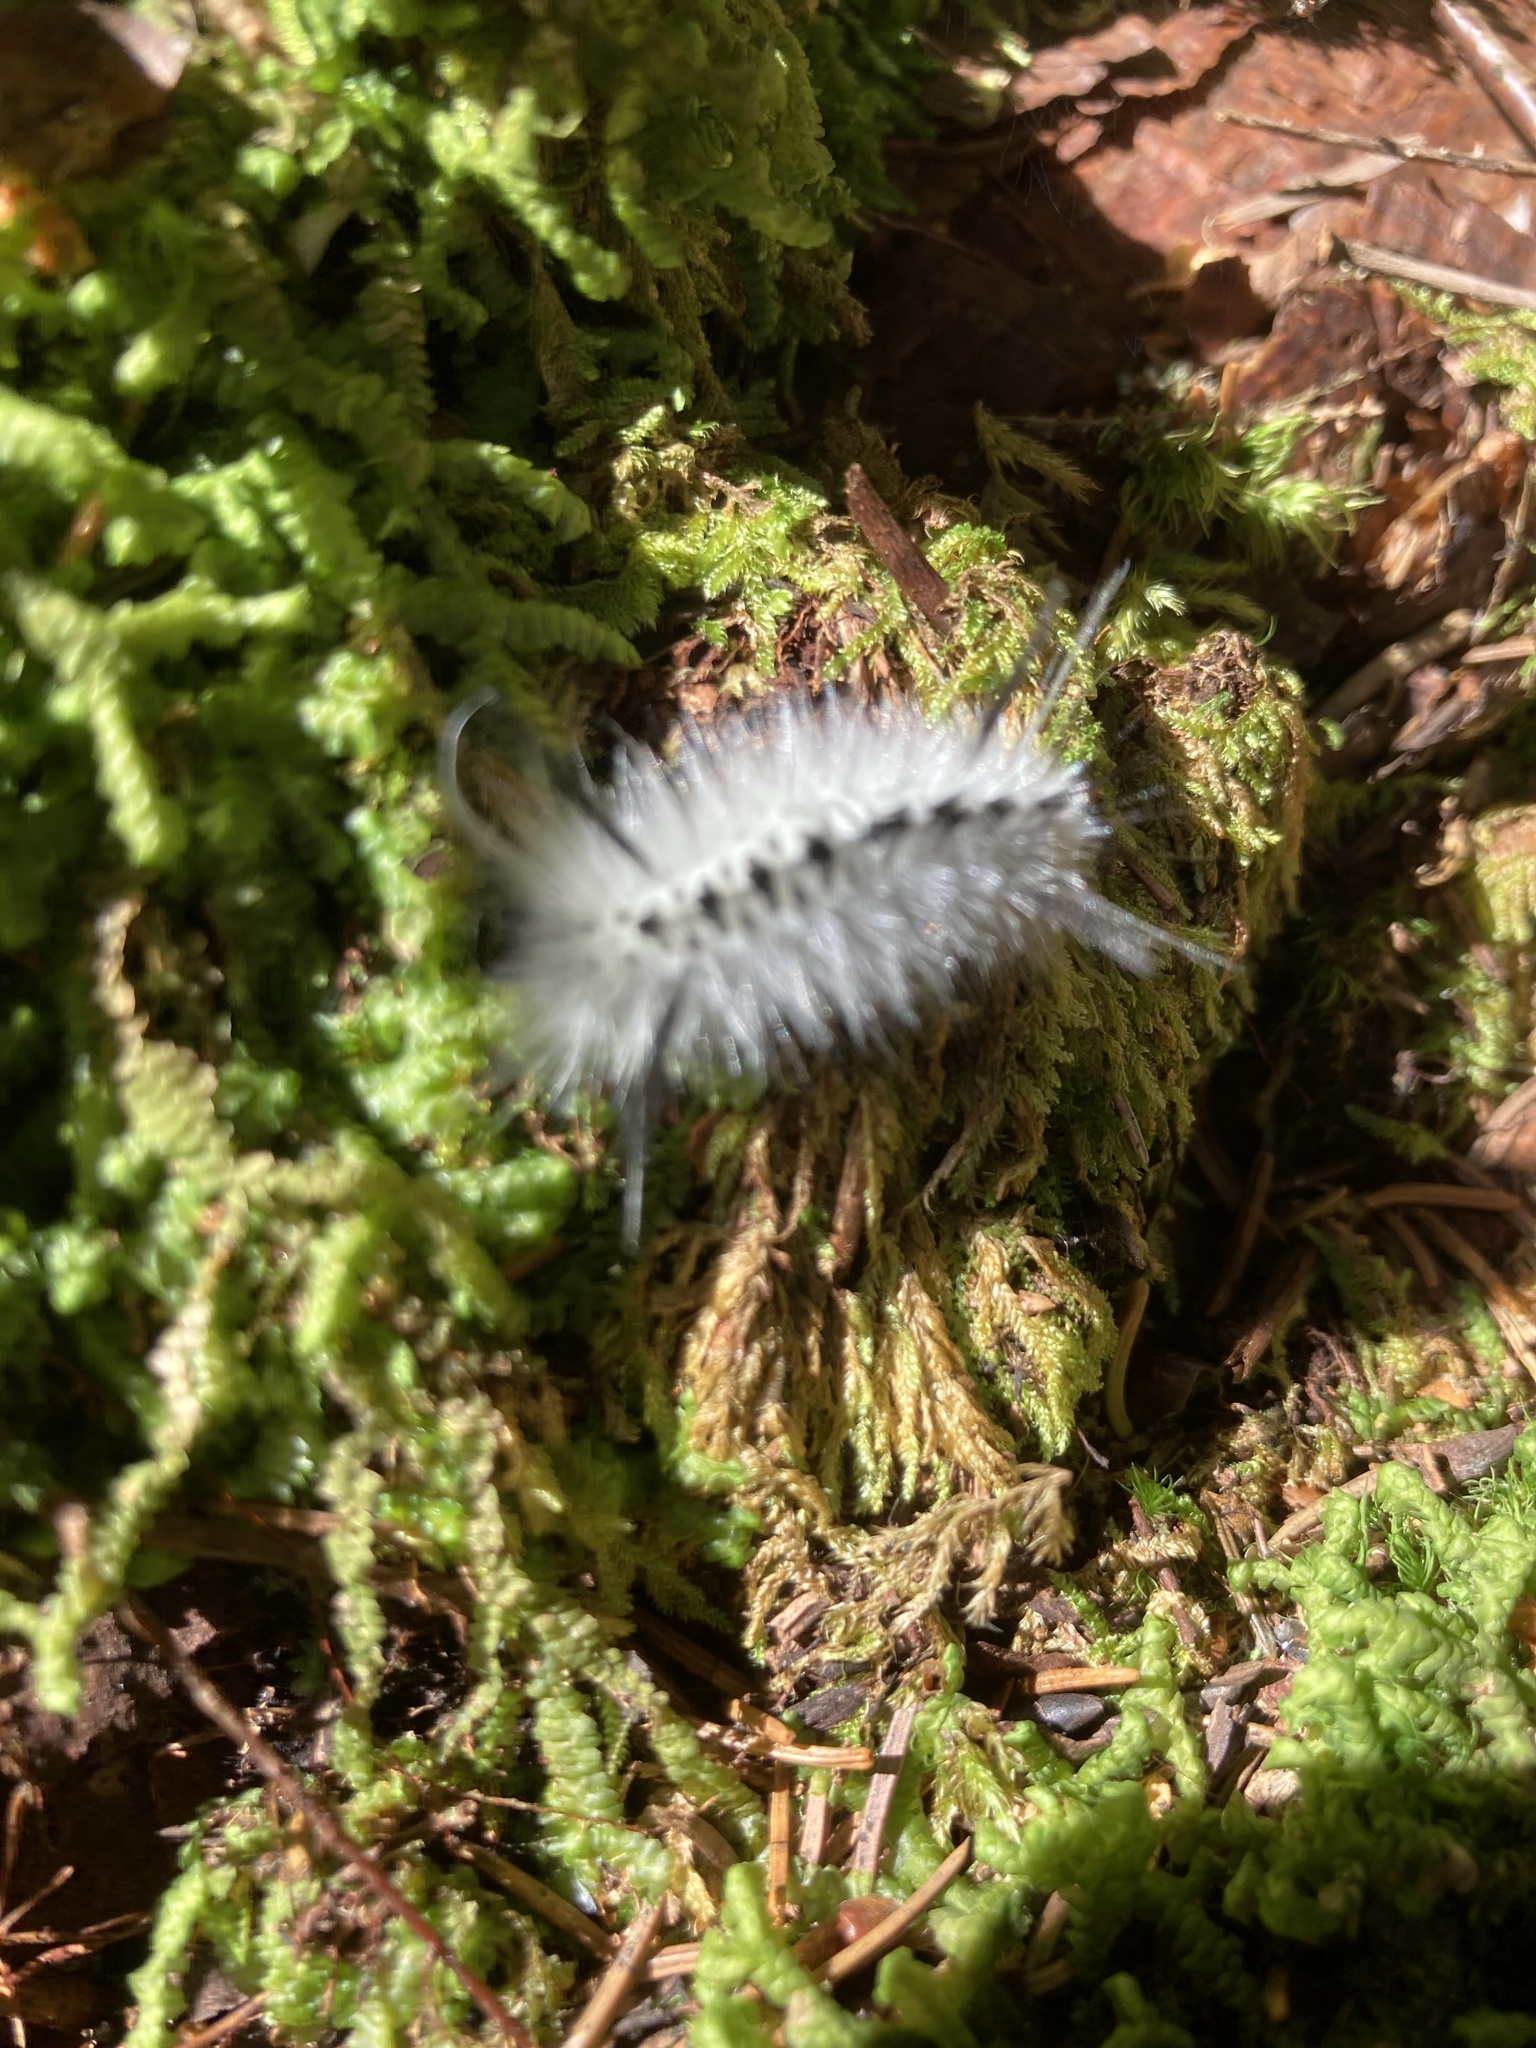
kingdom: Animalia
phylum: Arthropoda
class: Insecta
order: Lepidoptera
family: Erebidae
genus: Lophocampa
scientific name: Lophocampa caryae
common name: Hickory tussock moth
